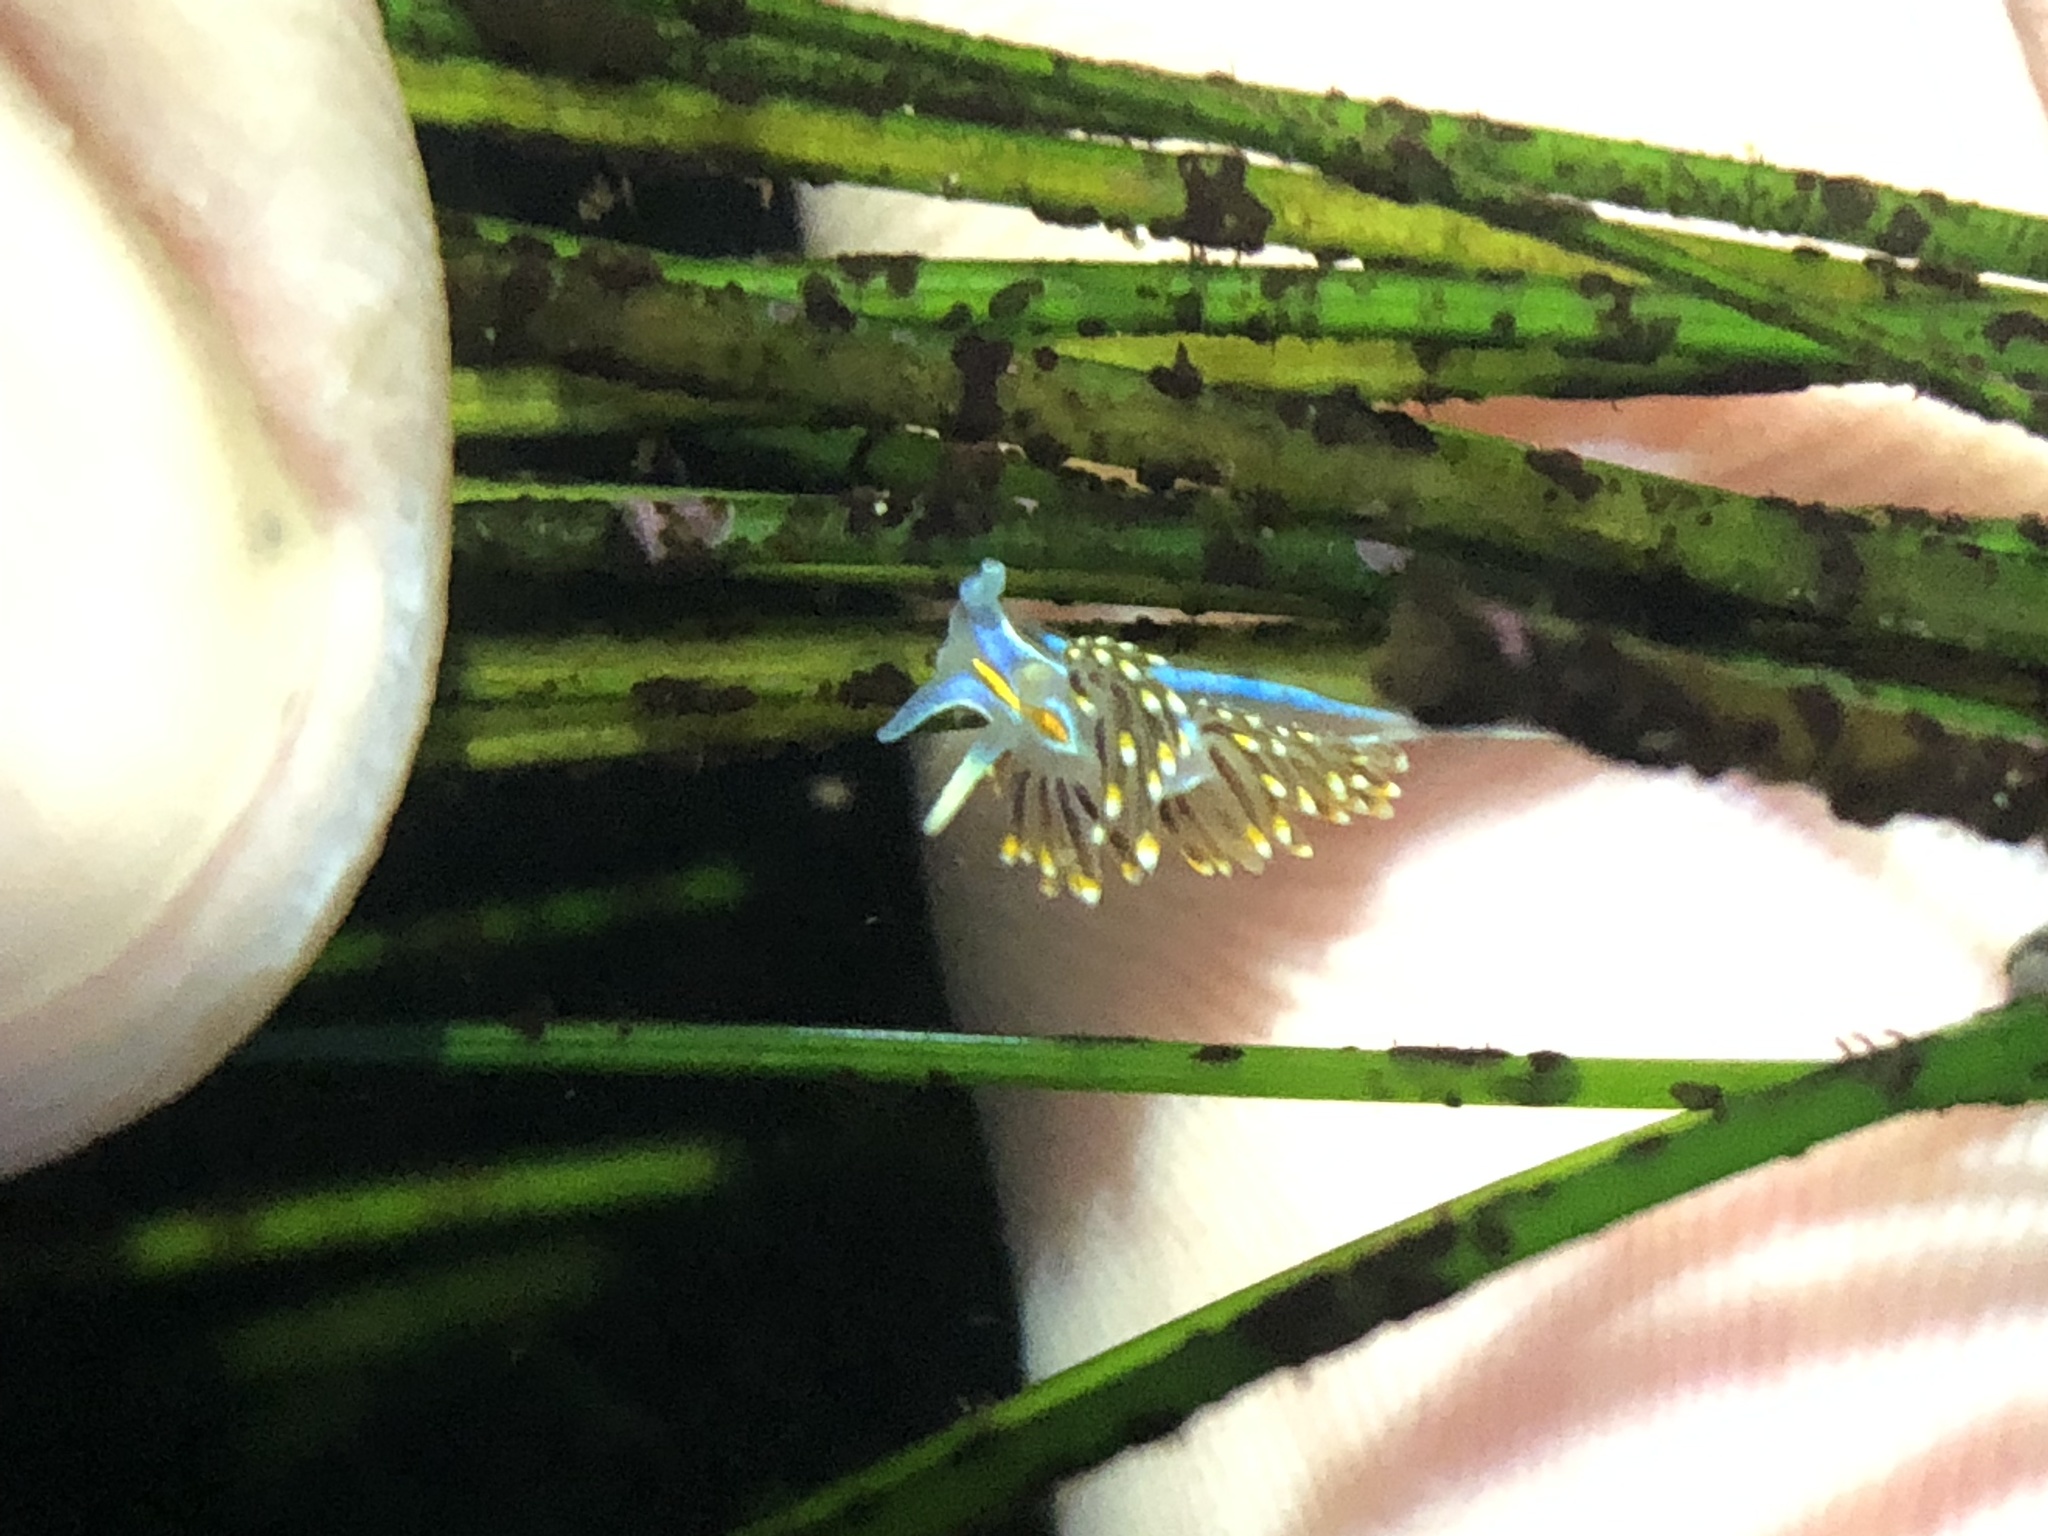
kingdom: Animalia
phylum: Mollusca
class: Gastropoda
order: Nudibranchia
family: Myrrhinidae
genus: Hermissenda
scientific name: Hermissenda opalescens
